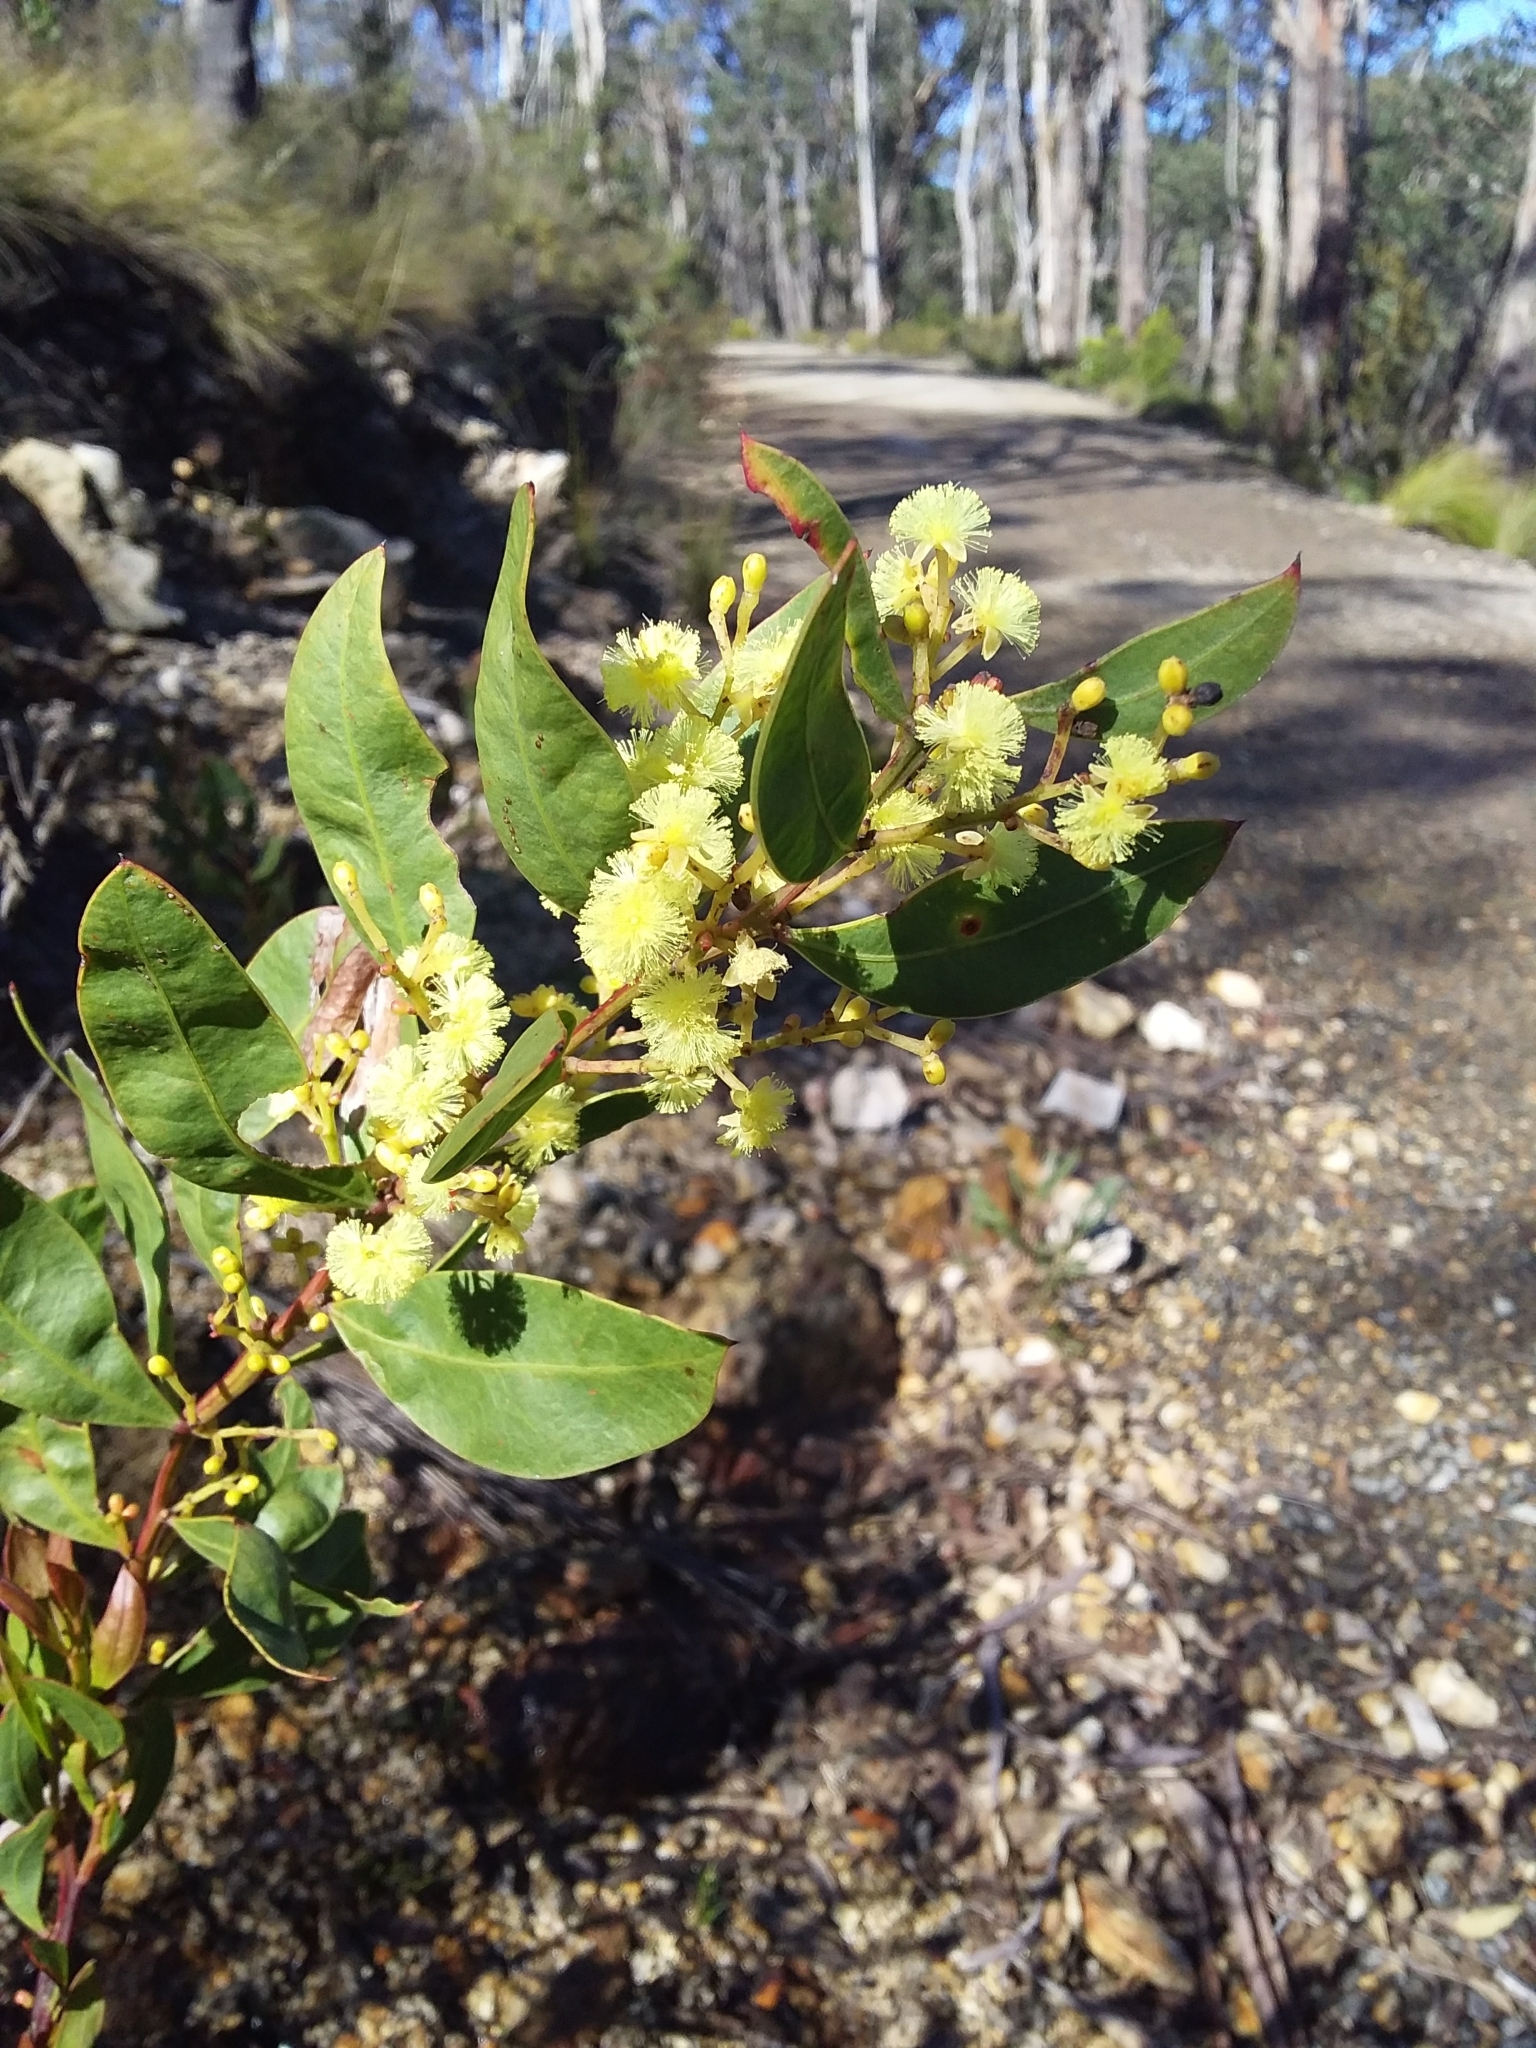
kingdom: Plantae
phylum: Tracheophyta
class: Magnoliopsida
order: Fabales
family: Fabaceae
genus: Acacia
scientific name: Acacia myrtifolia
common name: Myrtle wattle
